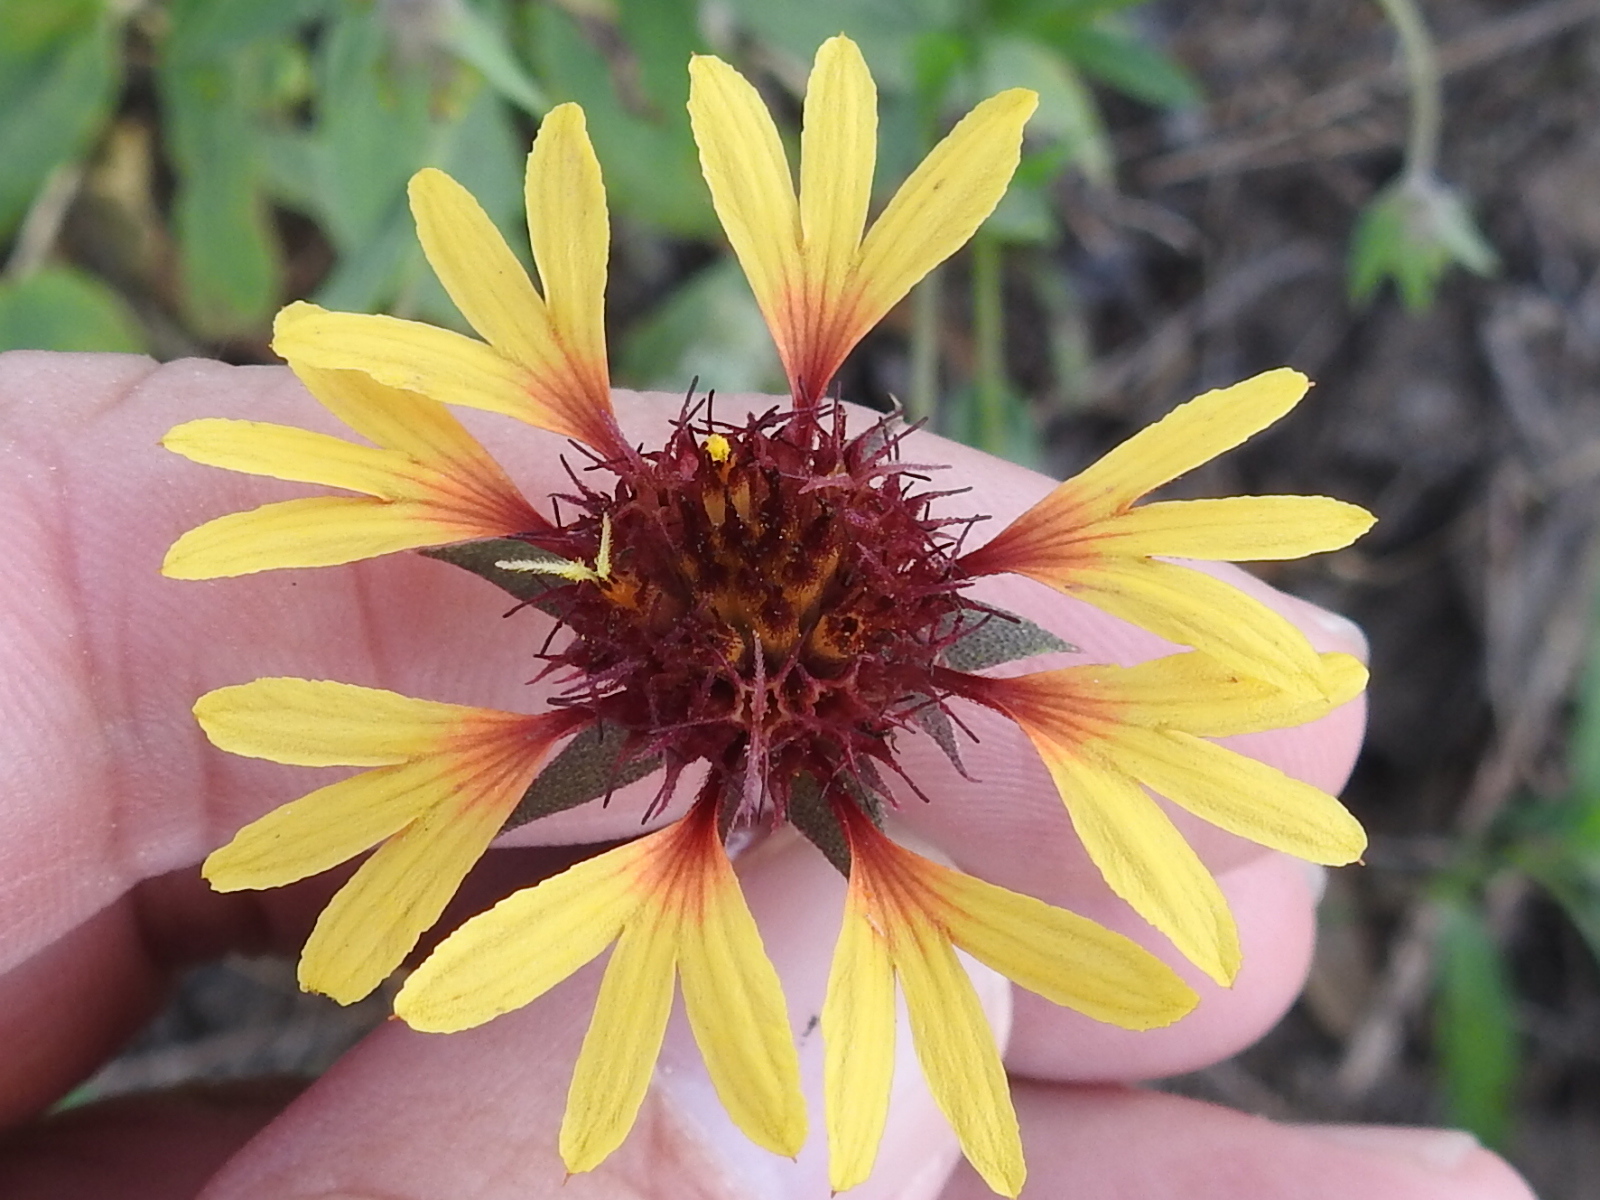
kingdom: Plantae
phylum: Tracheophyta
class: Magnoliopsida
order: Asterales
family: Asteraceae
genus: Gaillardia
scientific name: Gaillardia aestivalis
